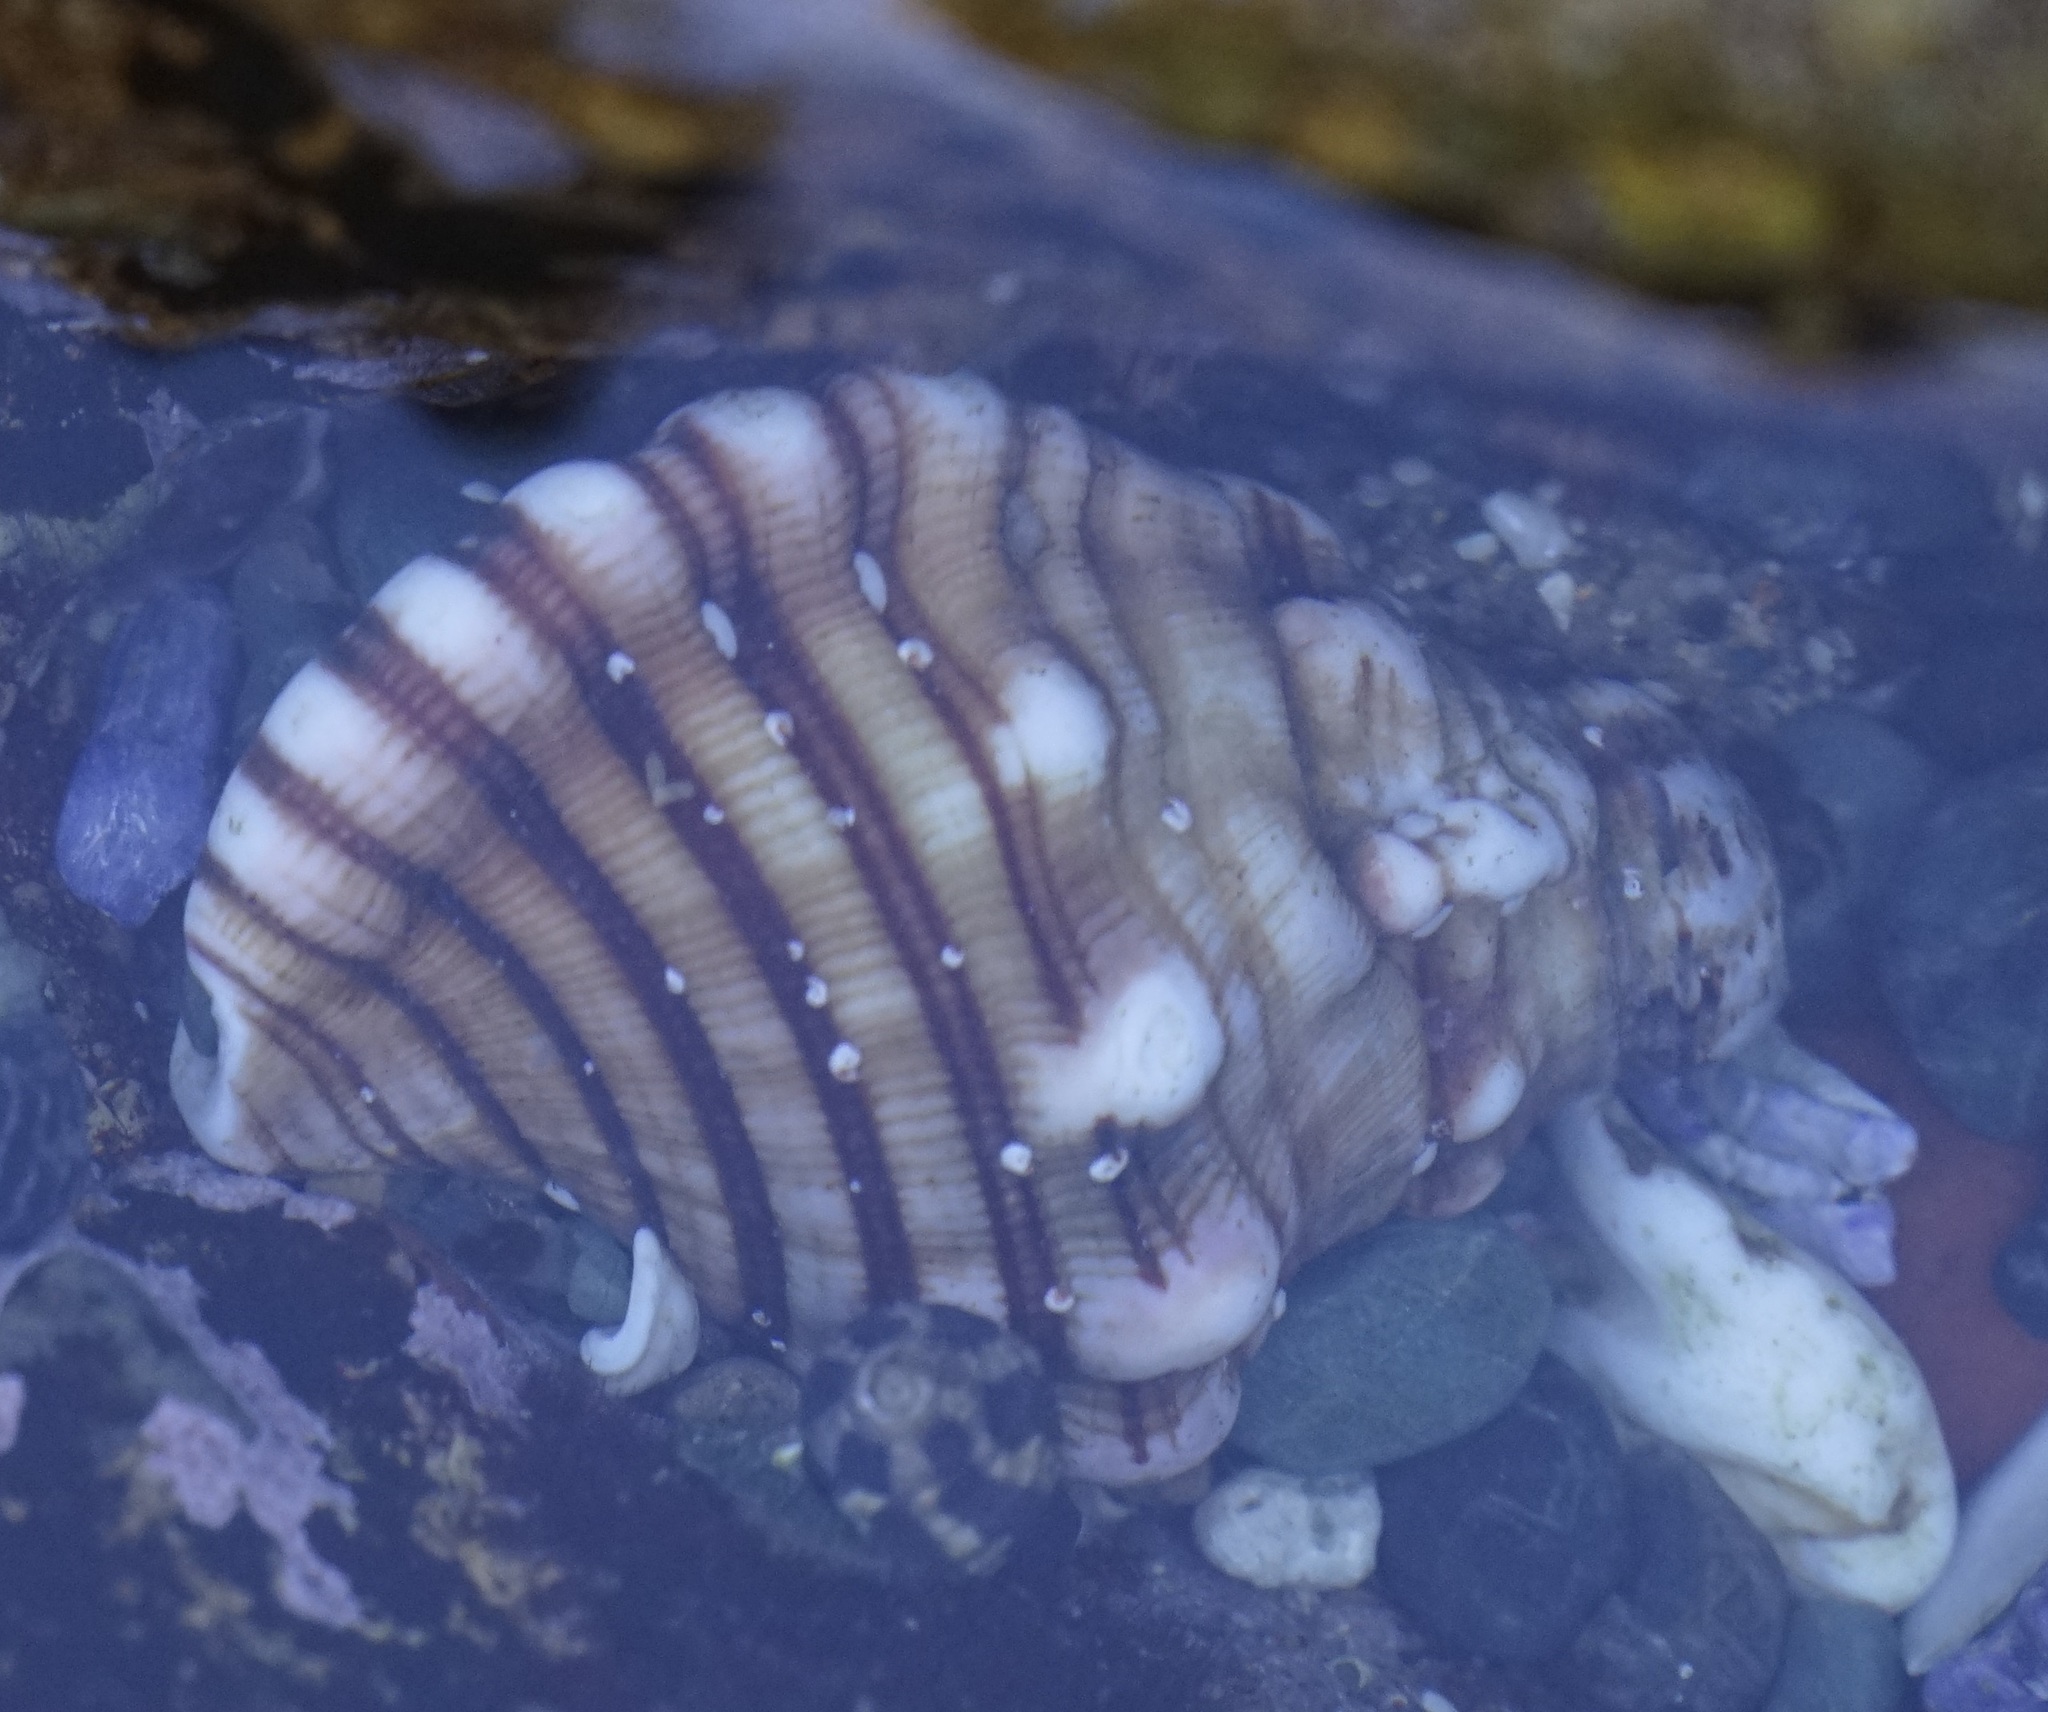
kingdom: Animalia
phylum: Mollusca
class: Gastropoda
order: Littorinimorpha
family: Cymatiidae
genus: Cabestana
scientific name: Cabestana spengleri
